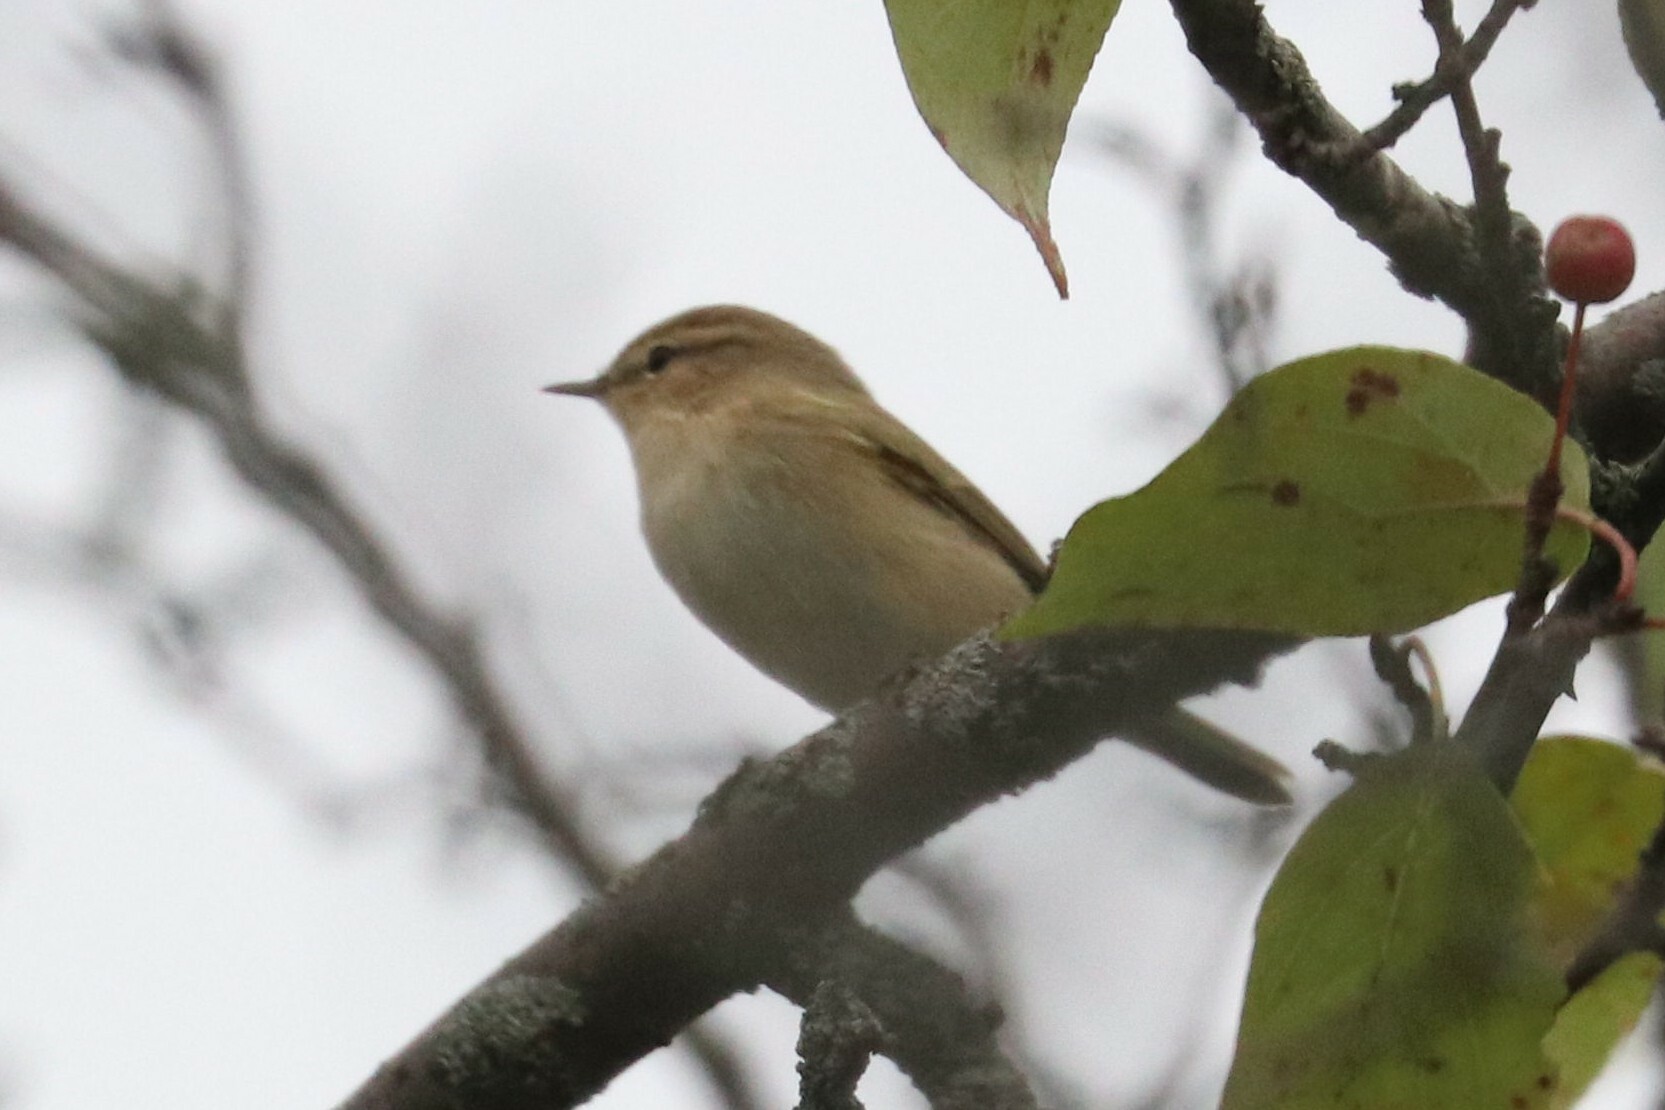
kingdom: Animalia
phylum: Chordata
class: Aves
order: Passeriformes
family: Phylloscopidae
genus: Phylloscopus
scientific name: Phylloscopus collybita
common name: Common chiffchaff
